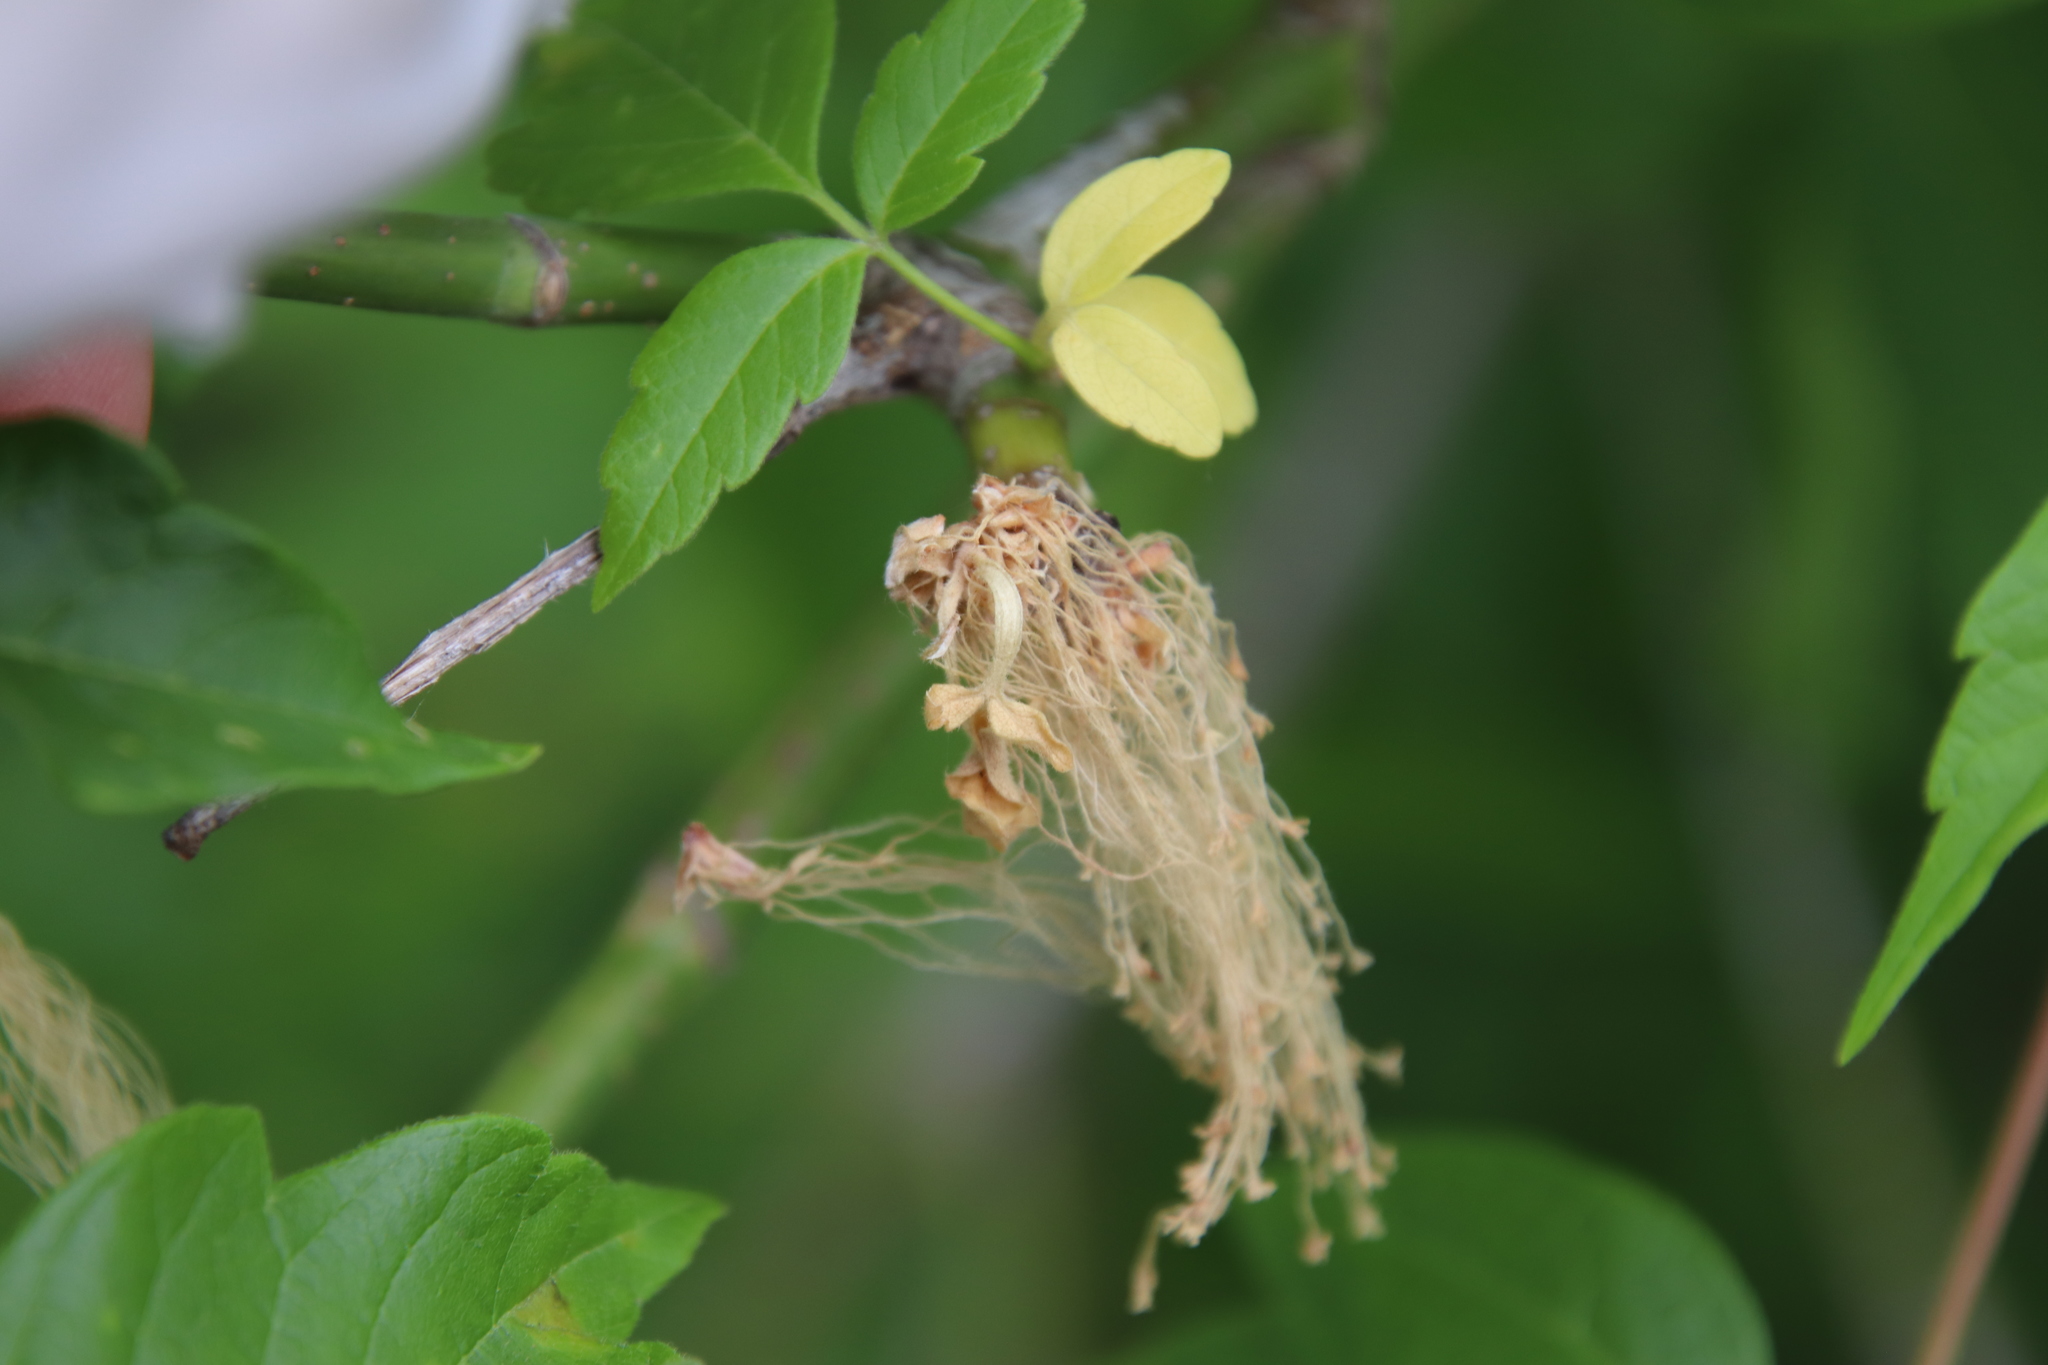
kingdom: Plantae
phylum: Tracheophyta
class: Magnoliopsida
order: Sapindales
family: Sapindaceae
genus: Acer
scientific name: Acer negundo
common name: Ashleaf maple
